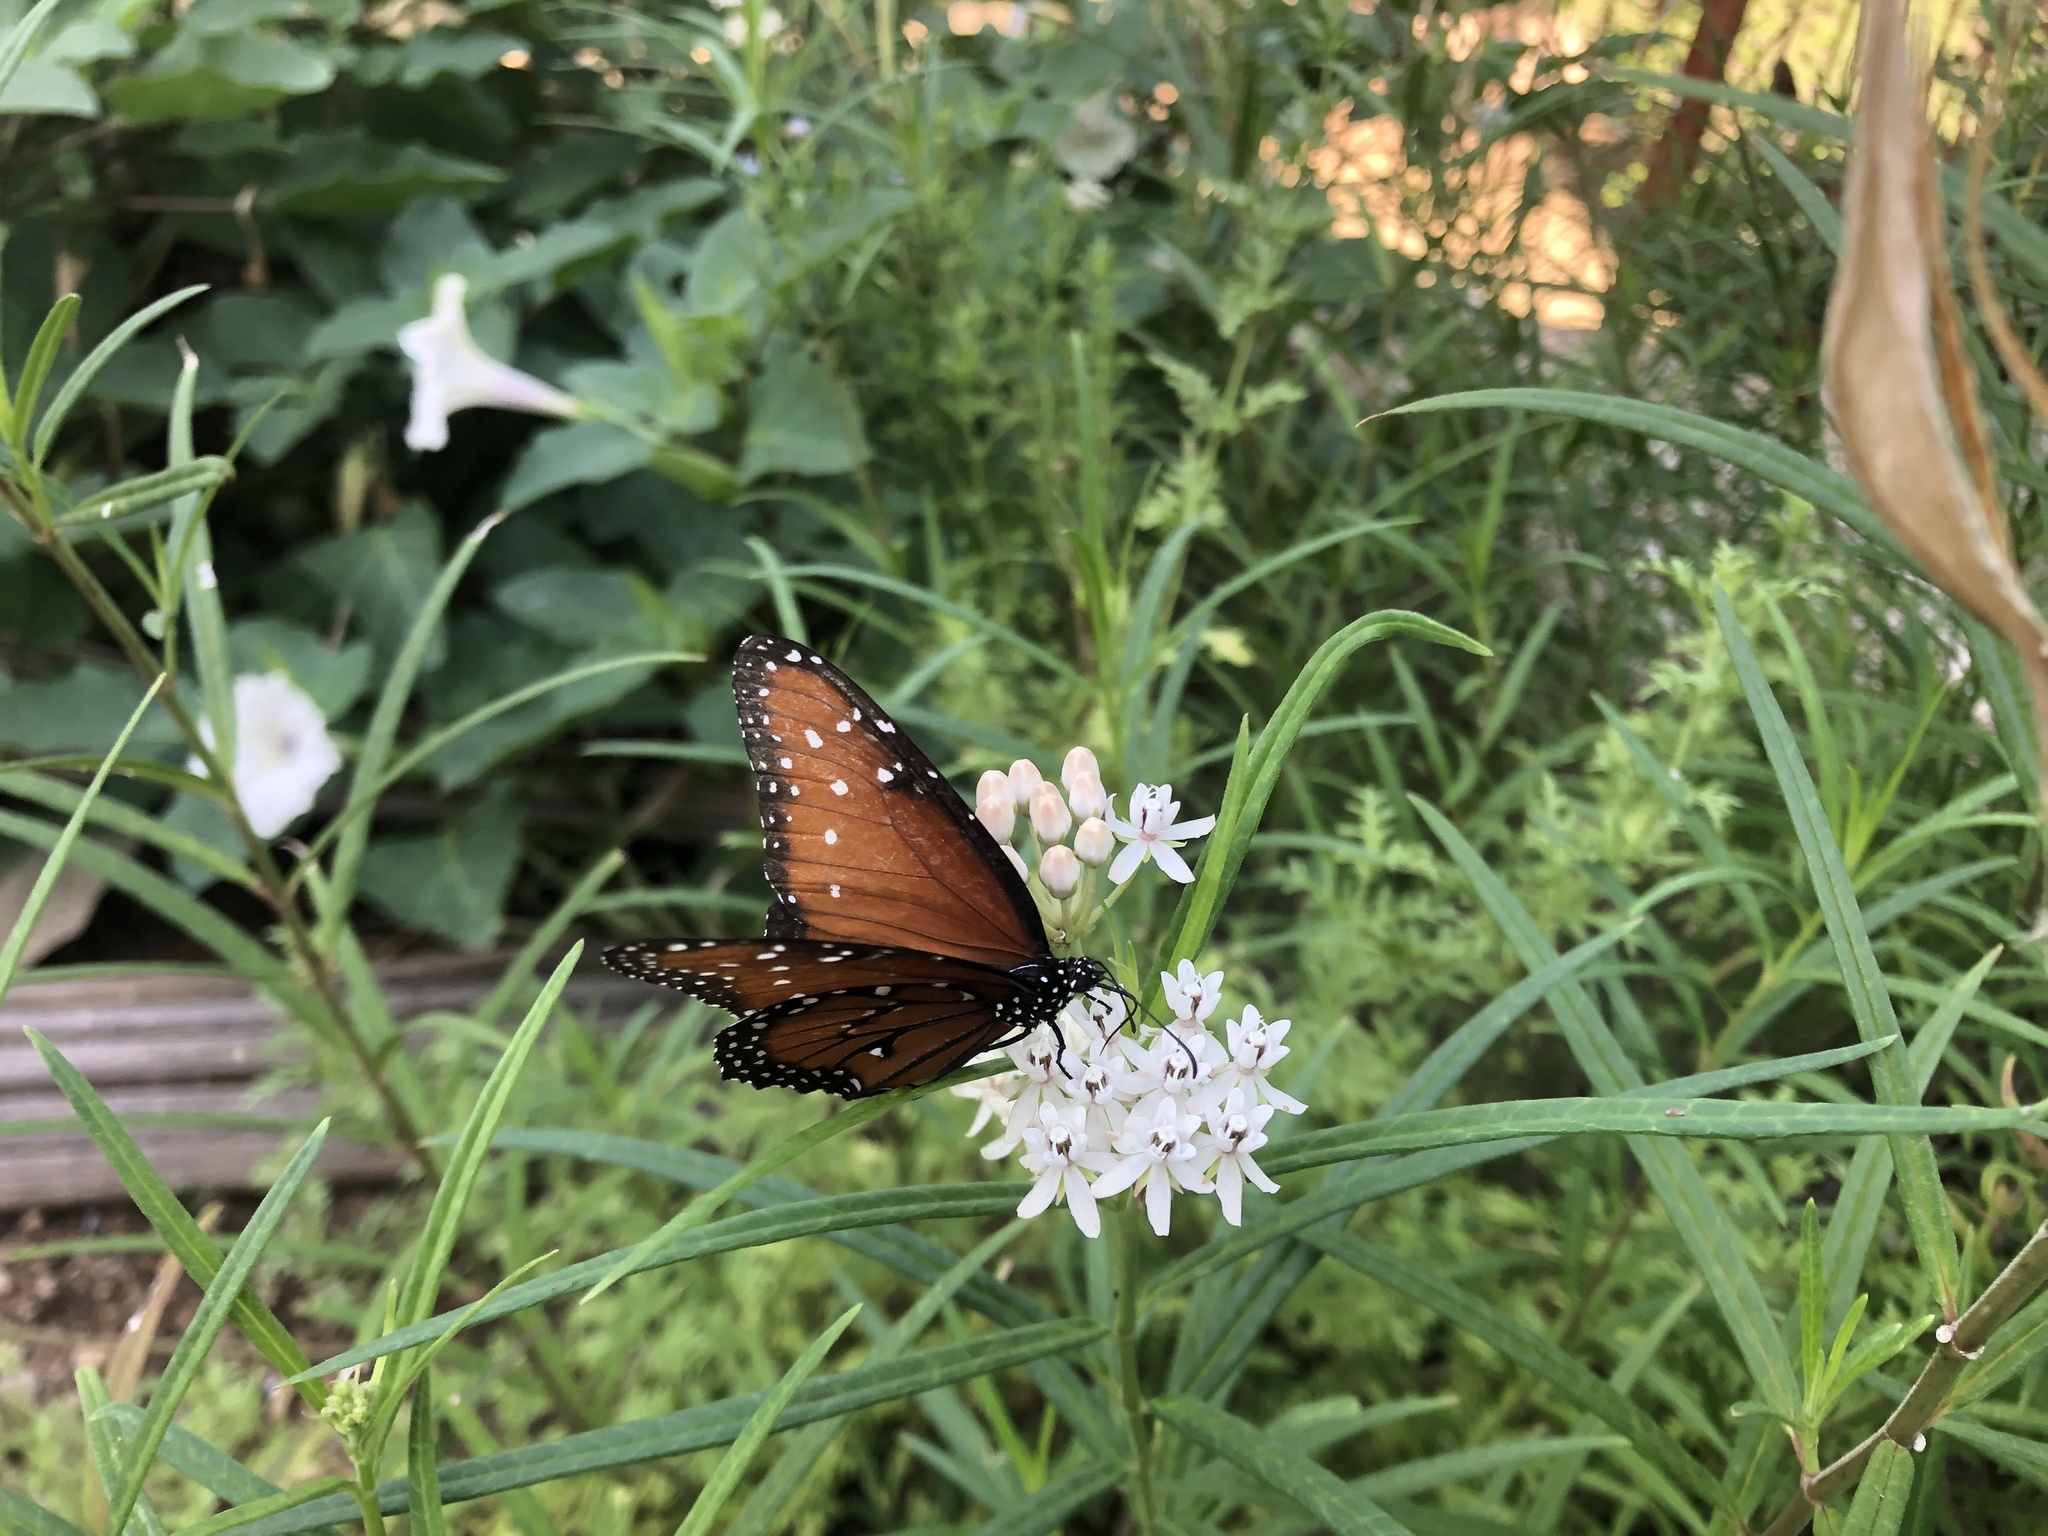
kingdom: Animalia
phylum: Arthropoda
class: Insecta
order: Lepidoptera
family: Nymphalidae
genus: Danaus
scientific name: Danaus gilippus
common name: Queen
